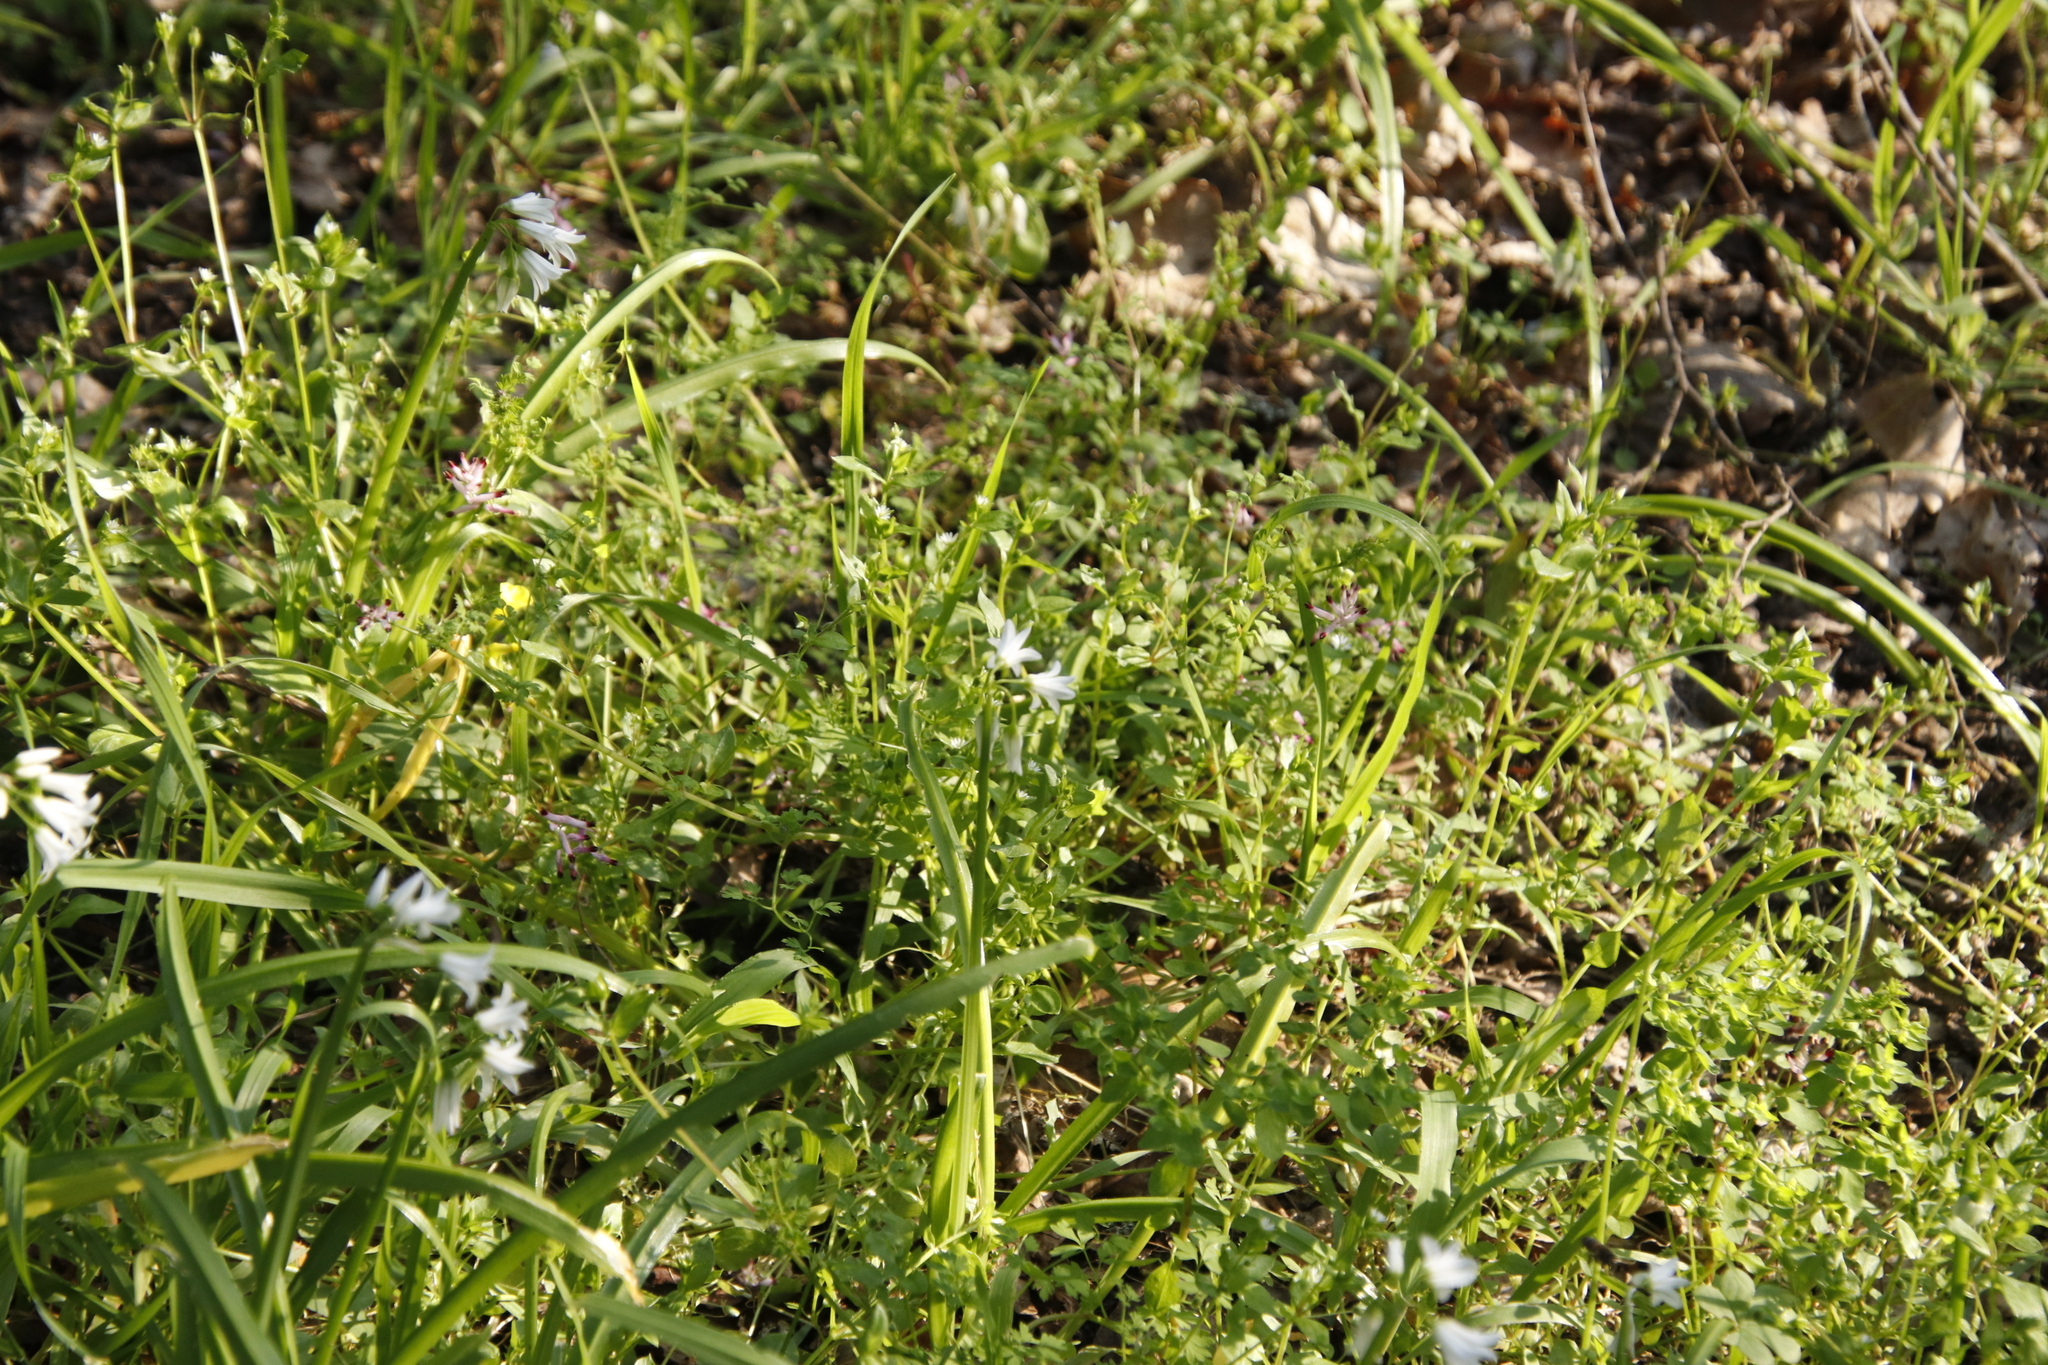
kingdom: Plantae
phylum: Tracheophyta
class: Liliopsida
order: Asparagales
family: Amaryllidaceae
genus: Allium
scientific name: Allium triquetrum
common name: Three-cornered garlic
